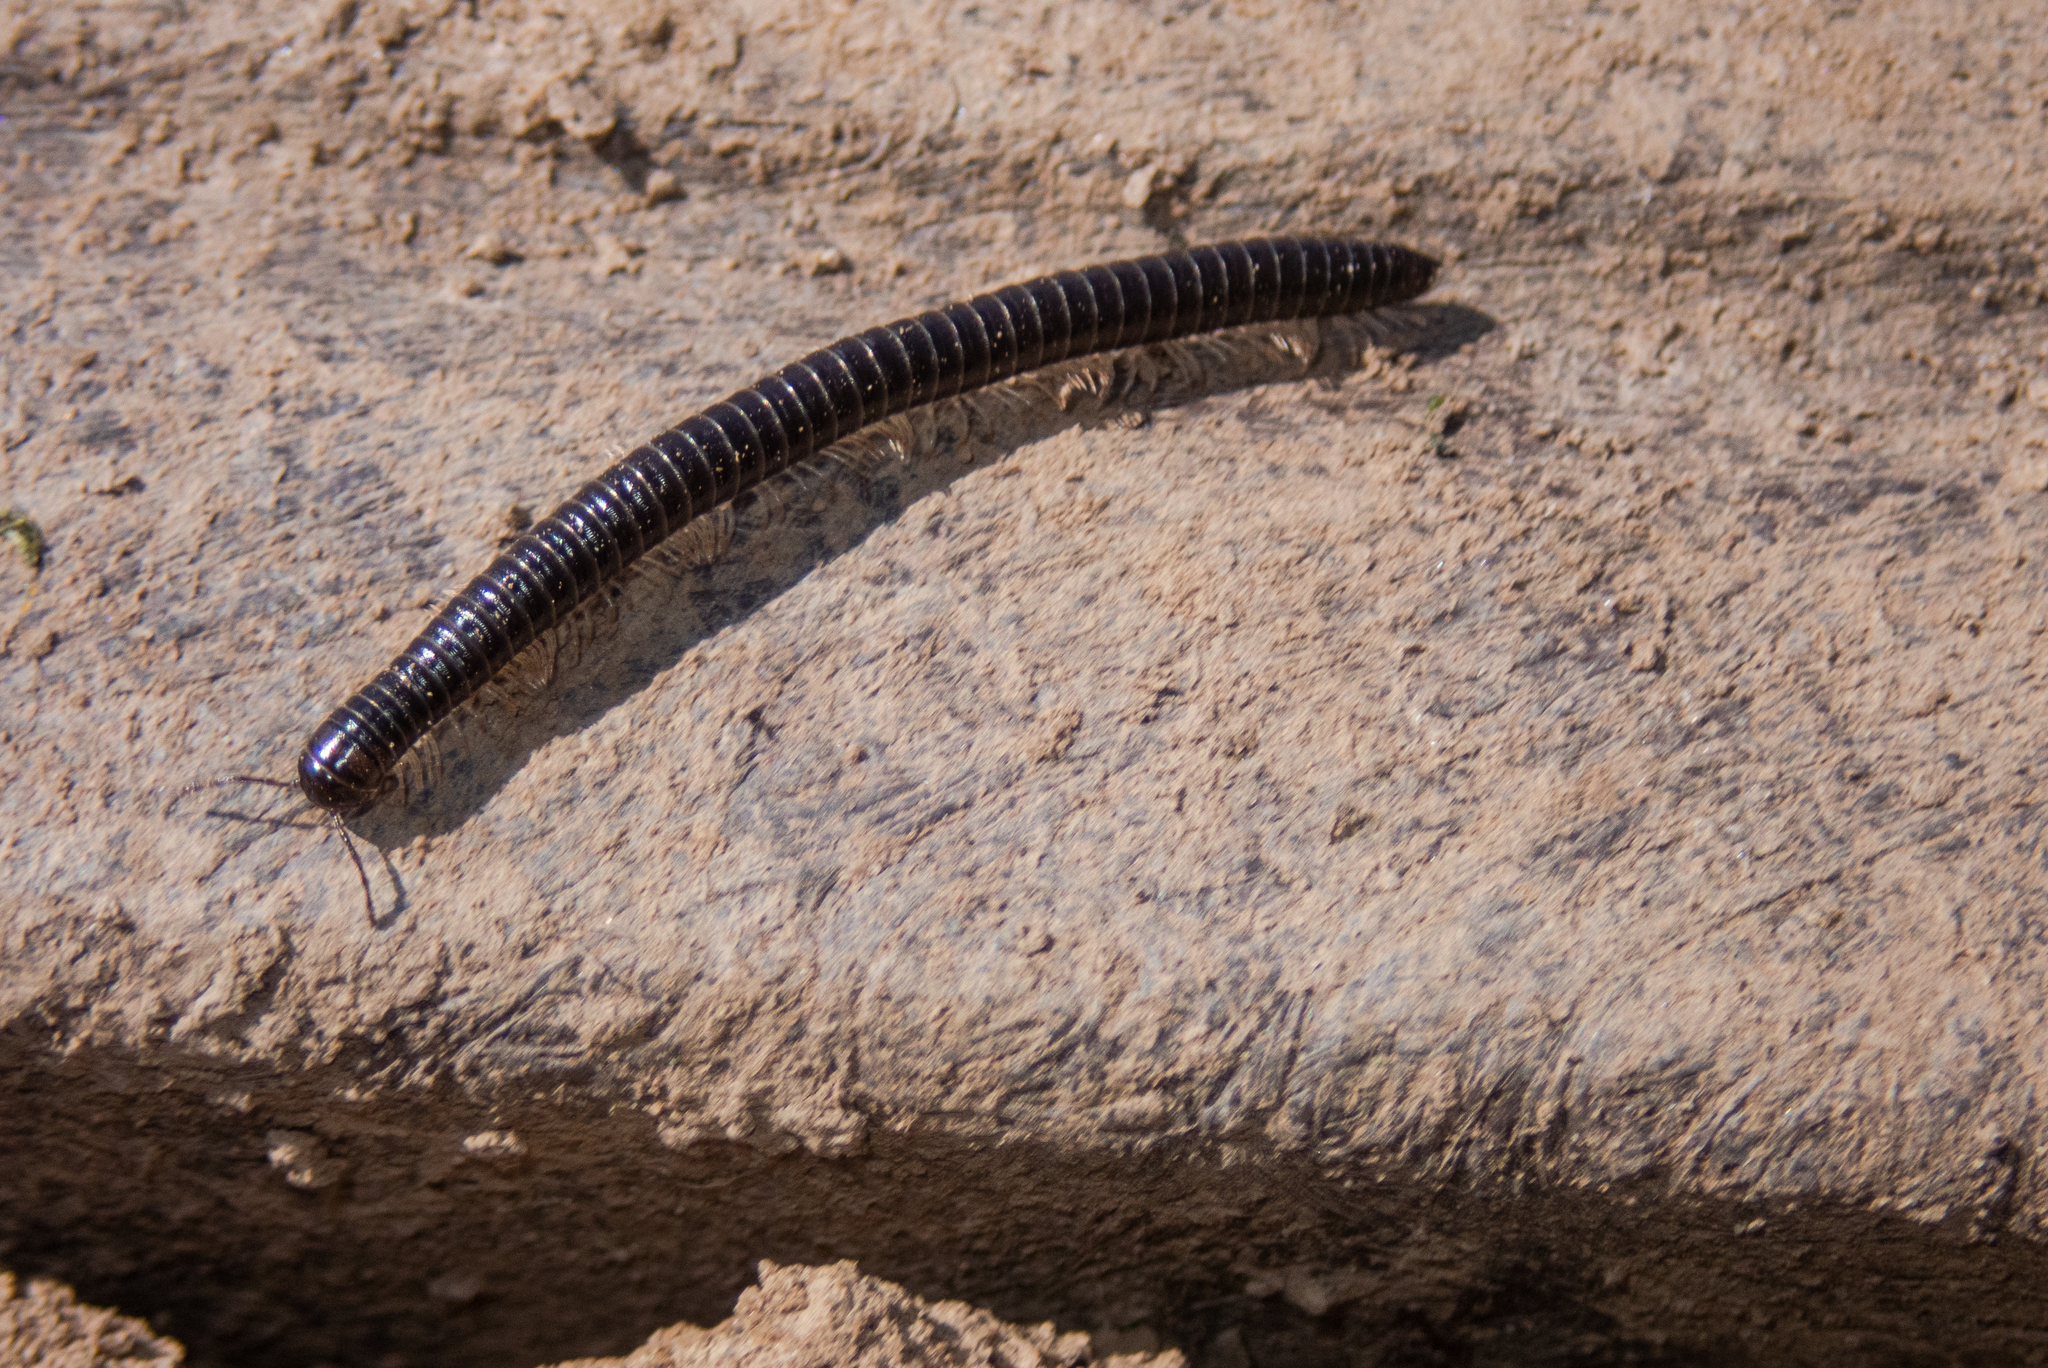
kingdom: Animalia
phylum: Arthropoda
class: Diplopoda
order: Julida
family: Julidae
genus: Tachypodoiulus
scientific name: Tachypodoiulus niger
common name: White-legged snake millipede
